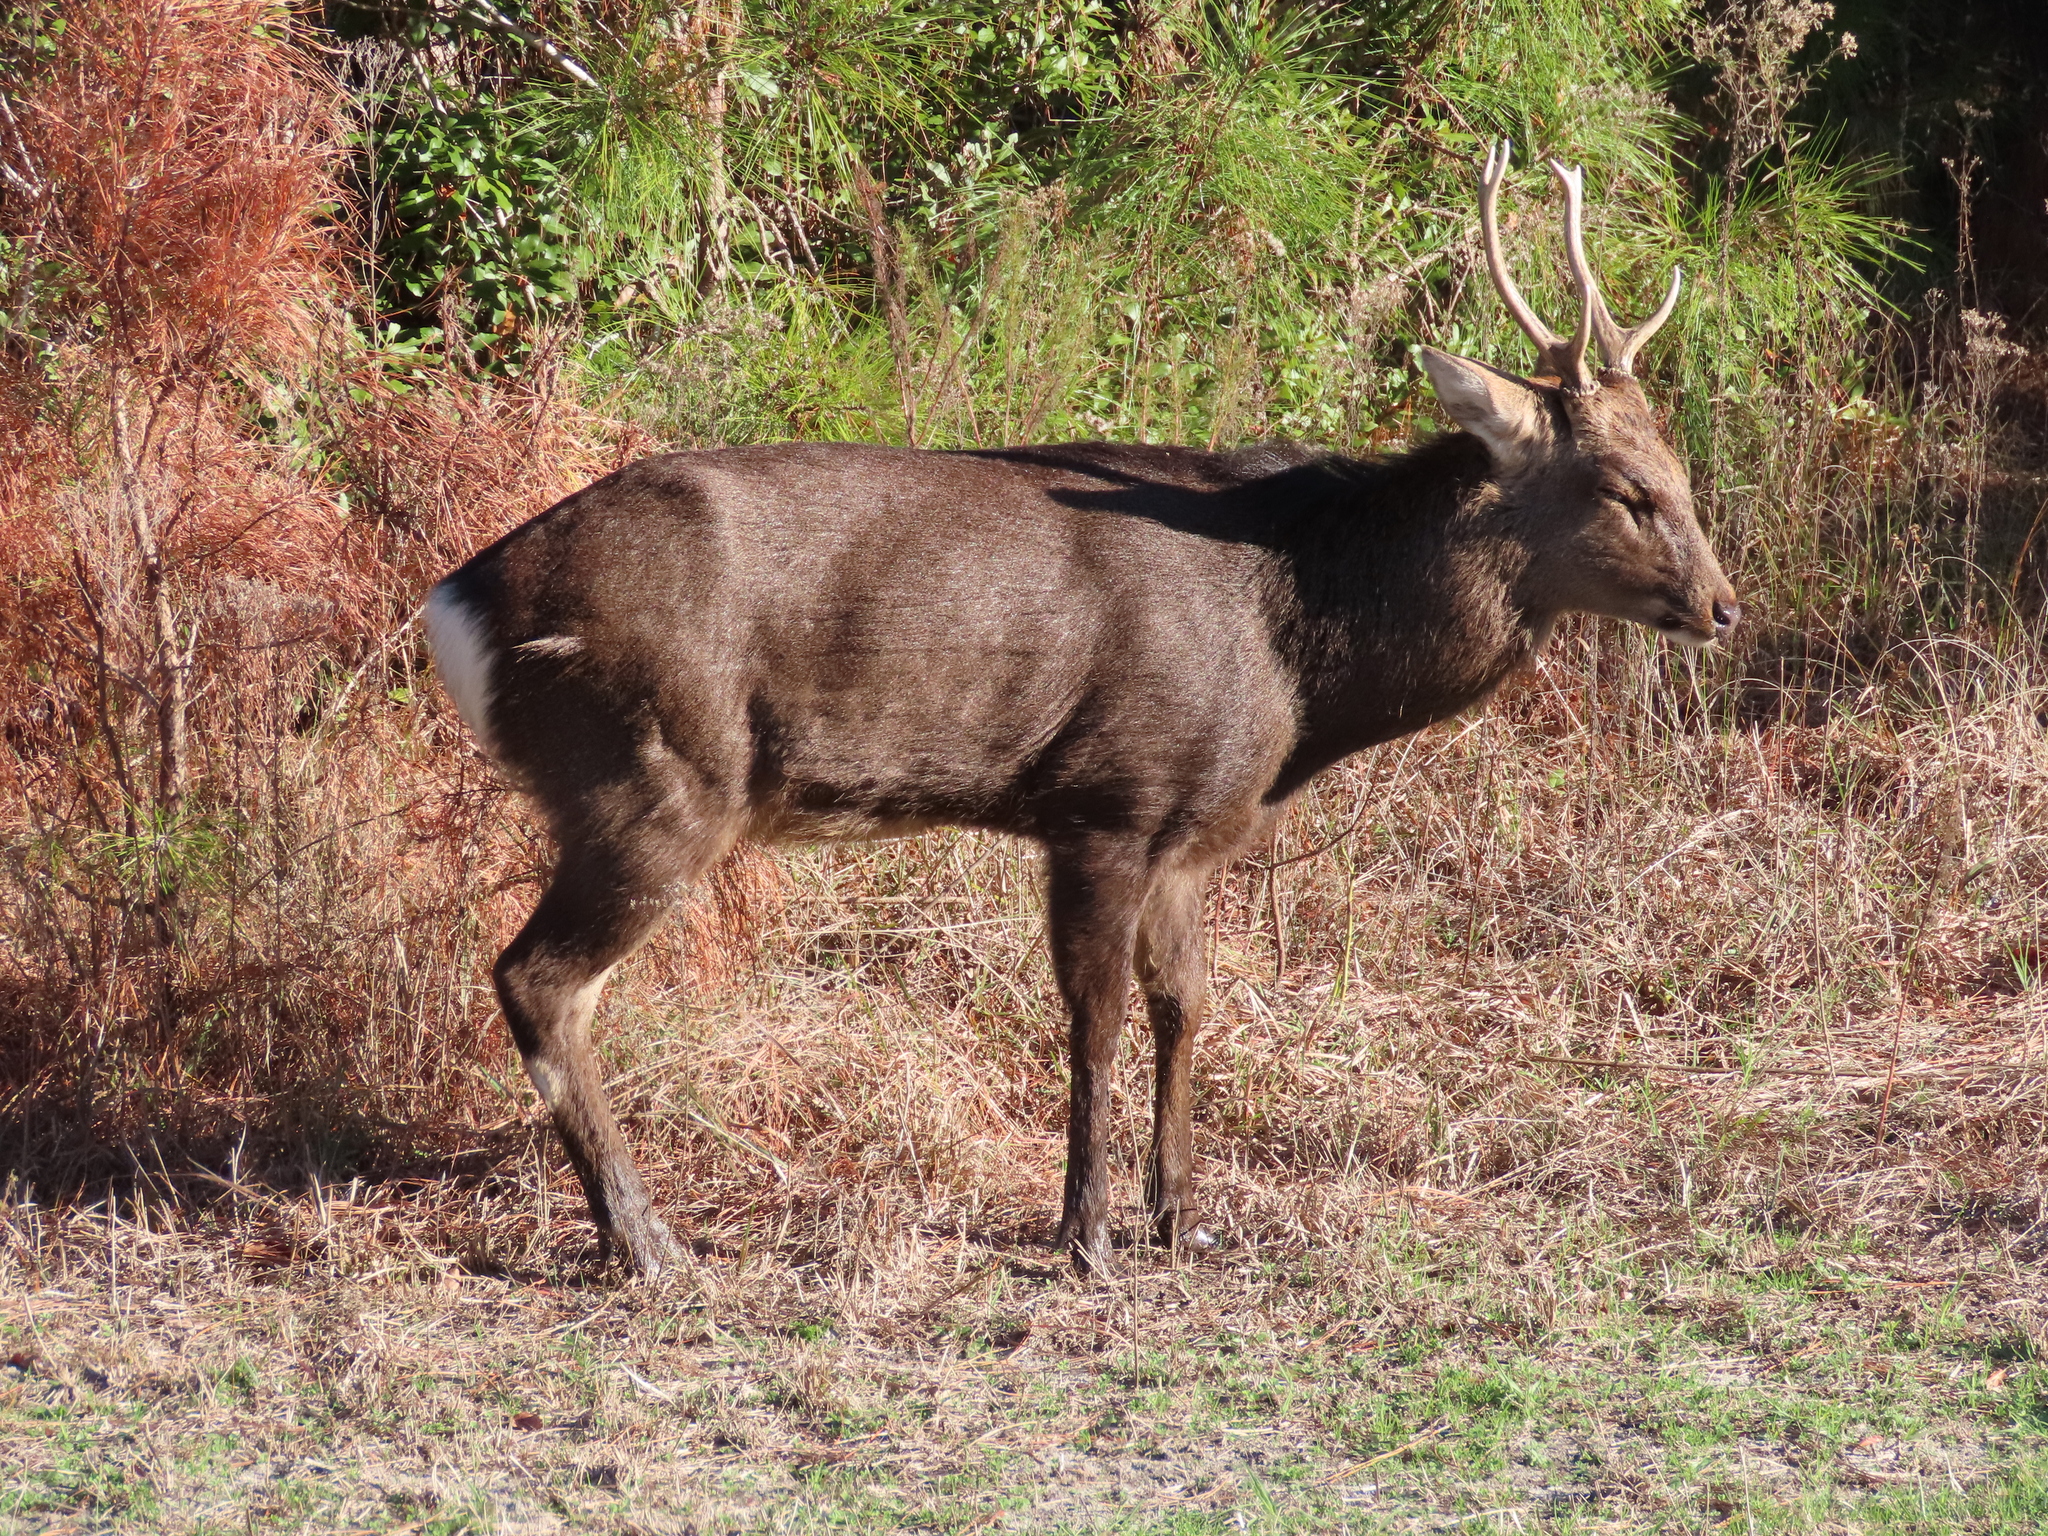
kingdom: Animalia
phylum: Chordata
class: Mammalia
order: Artiodactyla
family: Cervidae
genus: Cervus
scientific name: Cervus nippon
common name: Sika deer
